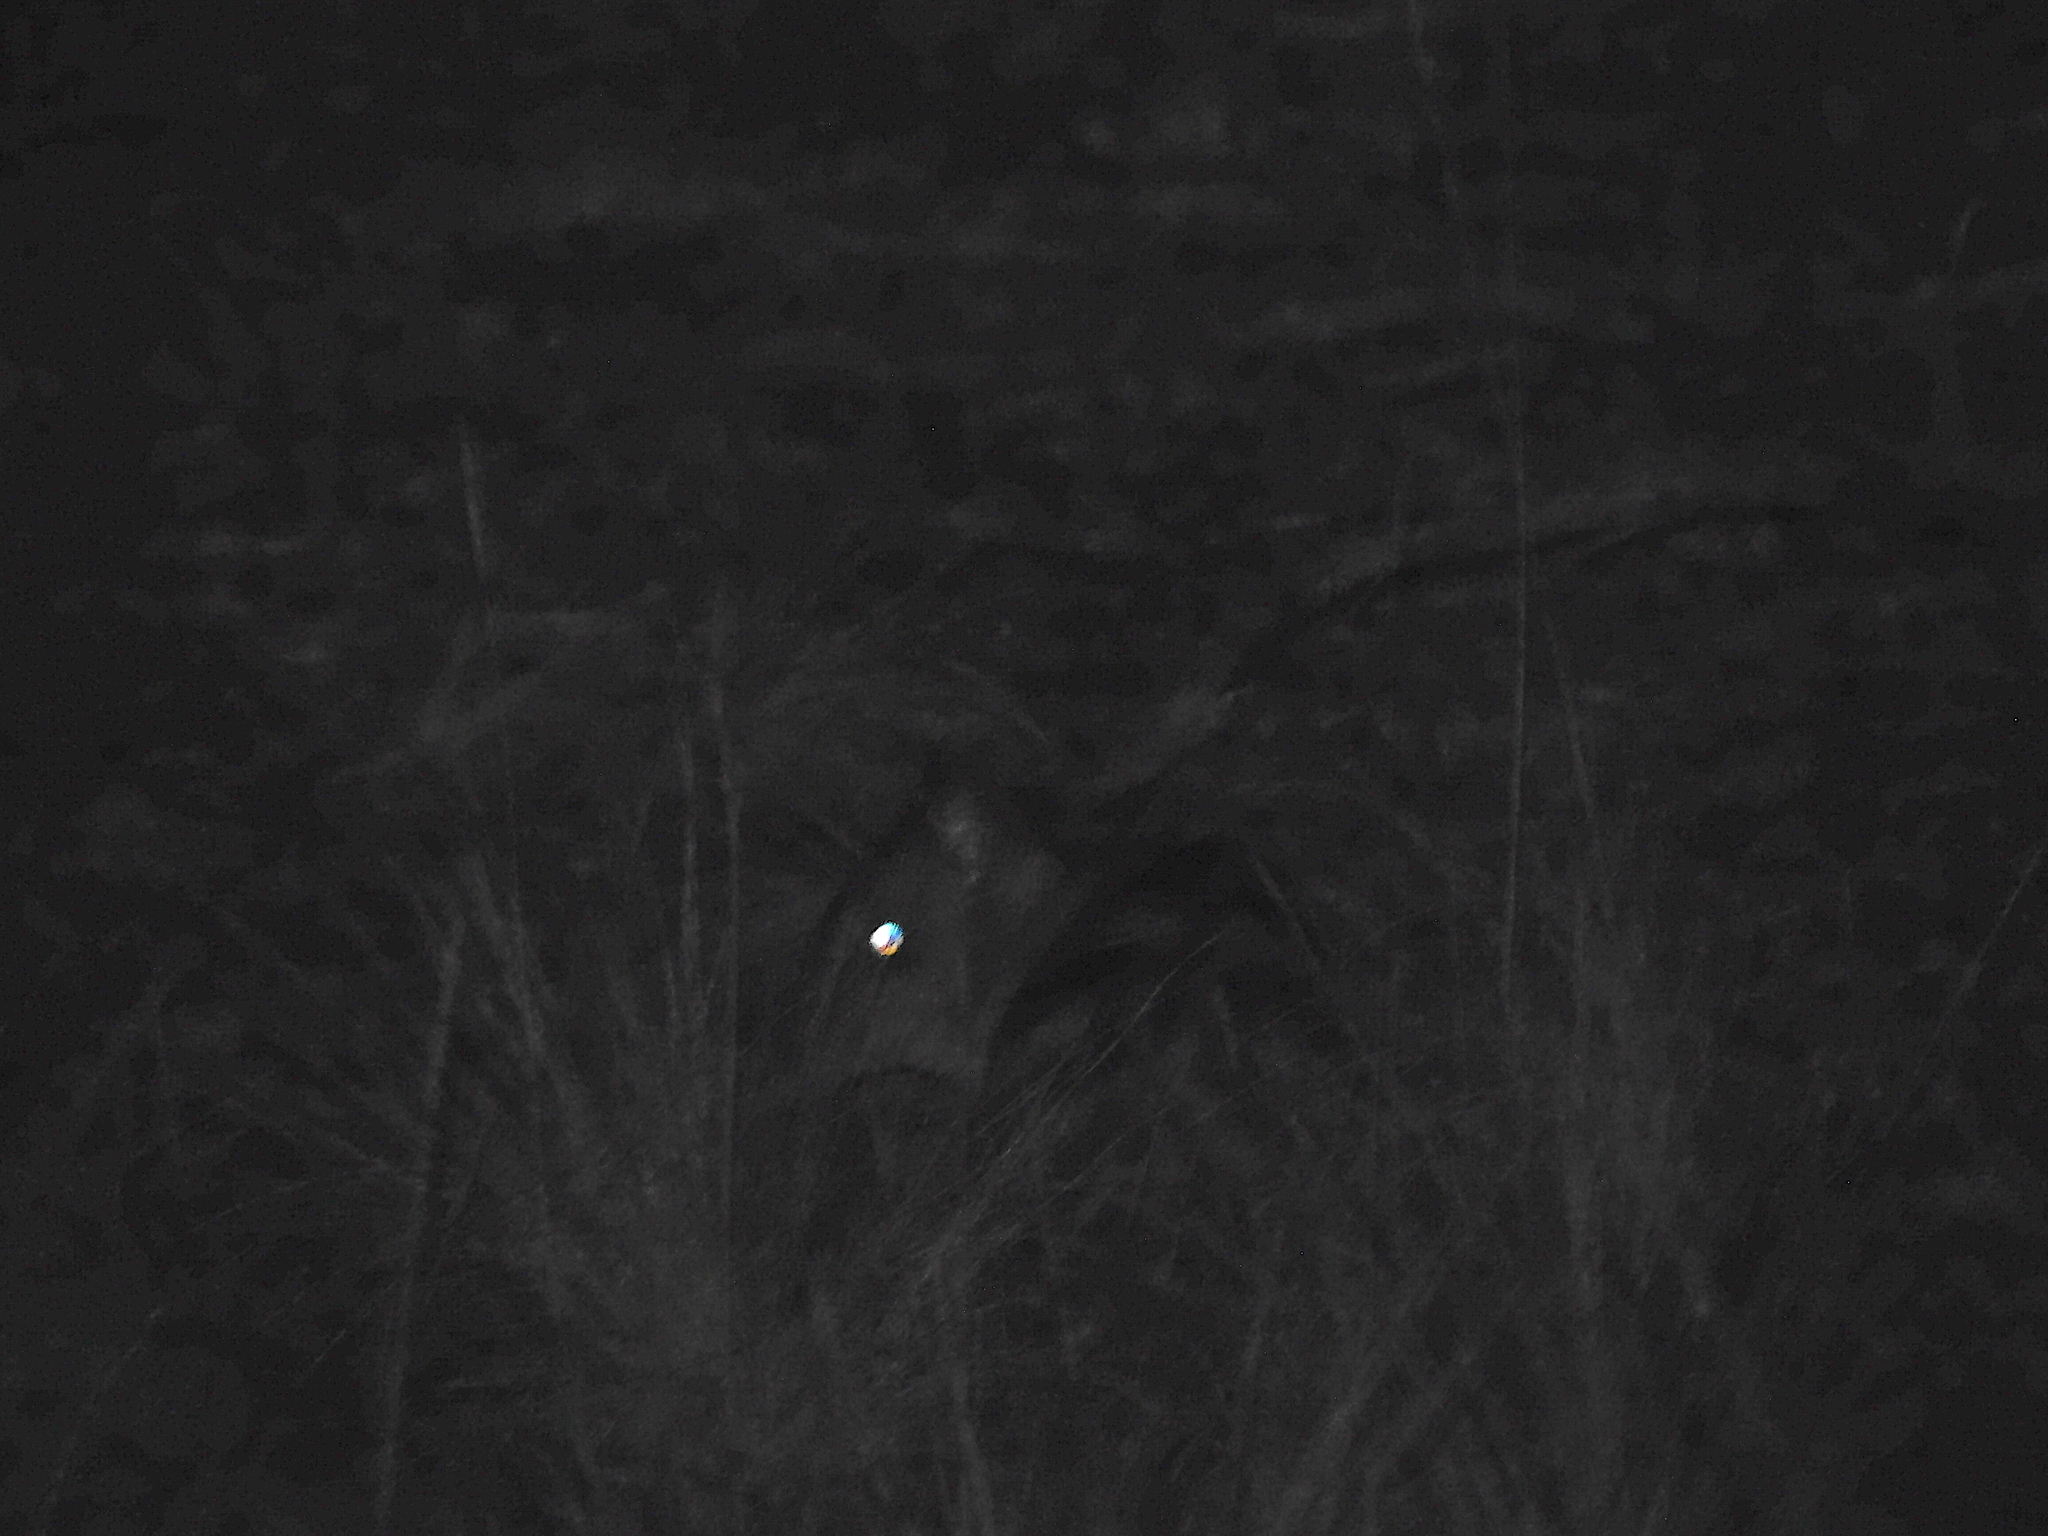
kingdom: Animalia
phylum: Chordata
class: Mammalia
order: Peramelemorphia
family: Peramelidae
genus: Perameles
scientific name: Perameles gunnii
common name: Eastern barred bandicoot
